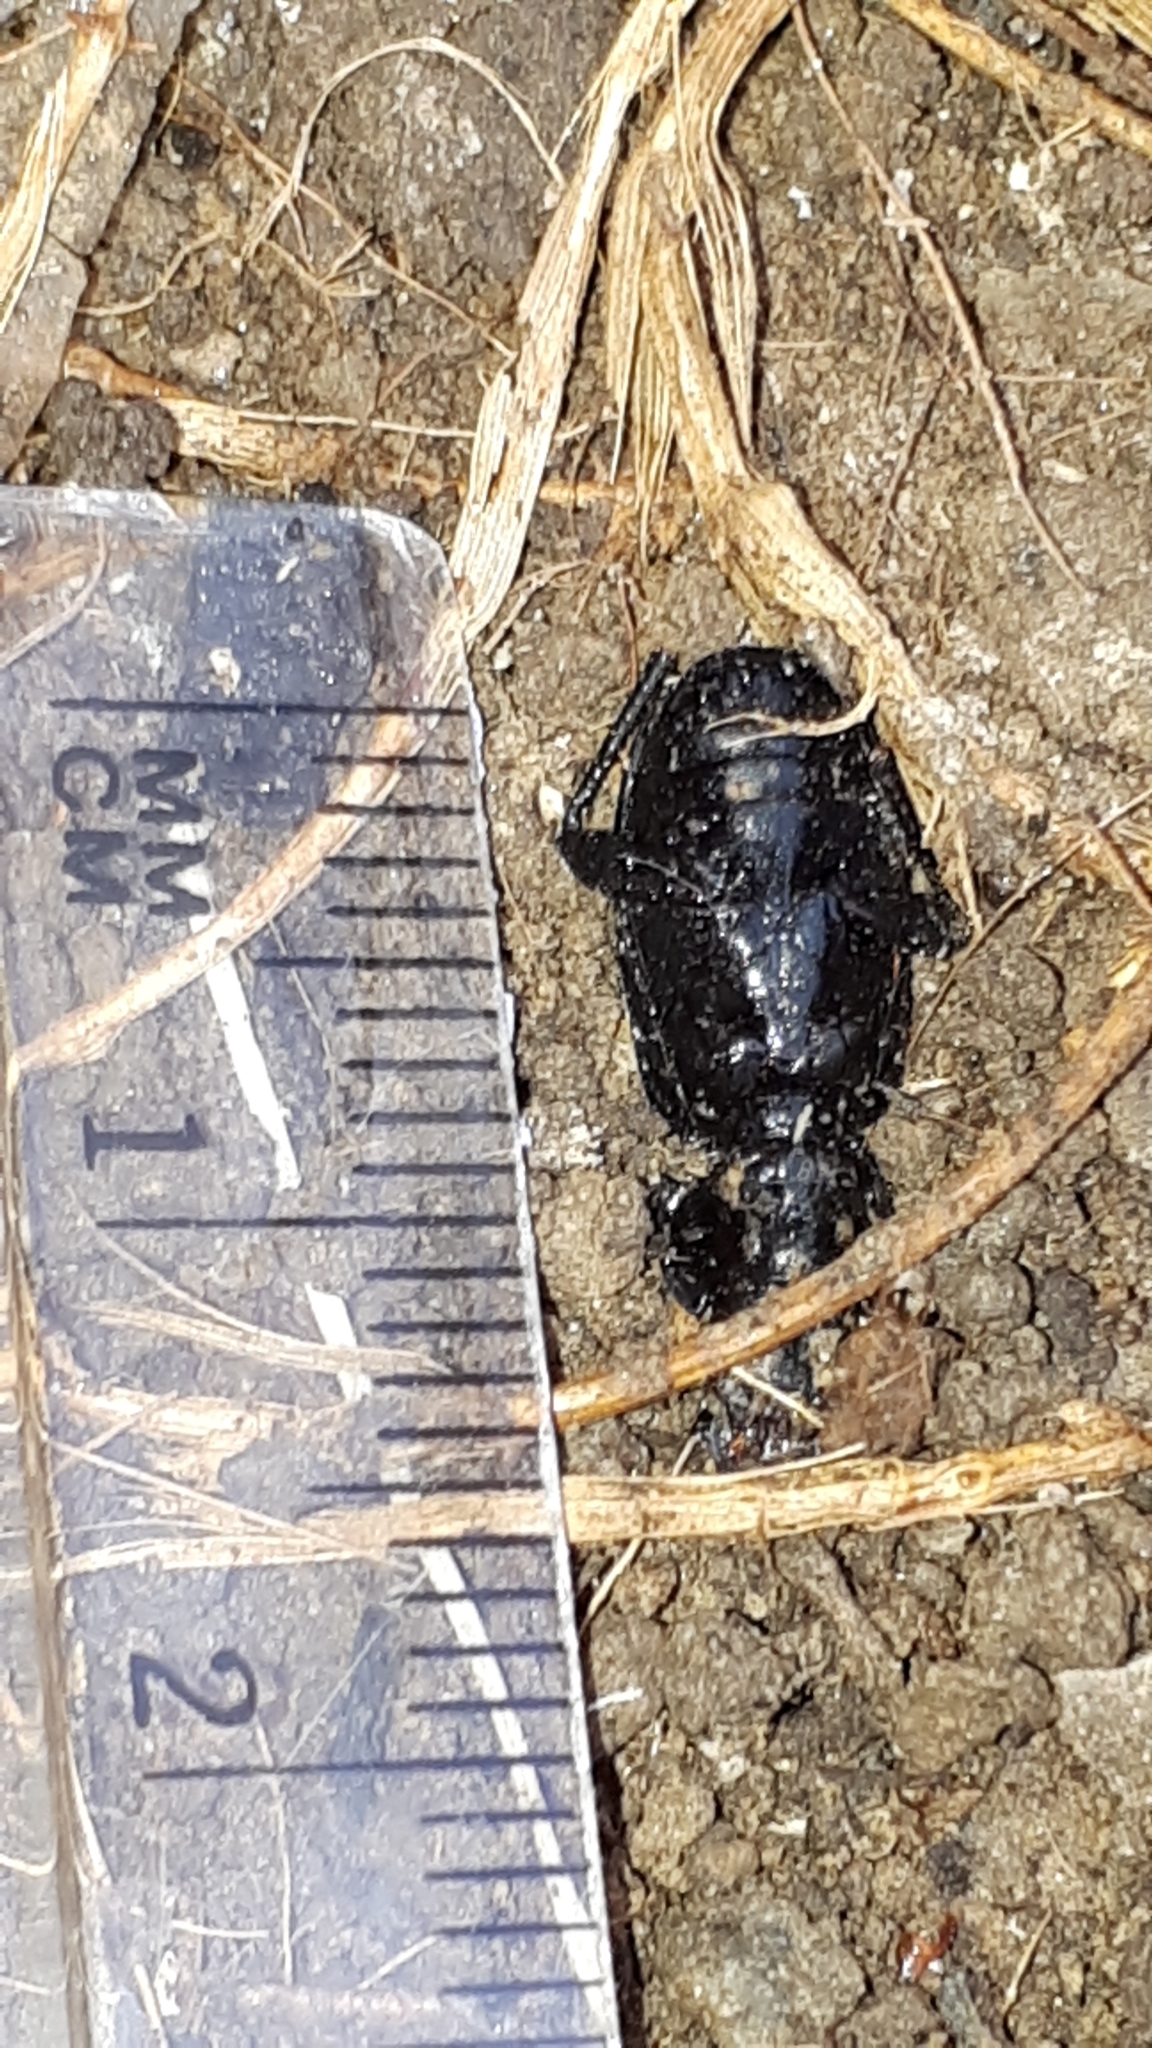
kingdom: Animalia
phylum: Arthropoda
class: Insecta
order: Coleoptera
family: Carabidae
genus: Pterostichus
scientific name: Pterostichus melanarius
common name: European dark harp ground beetle
